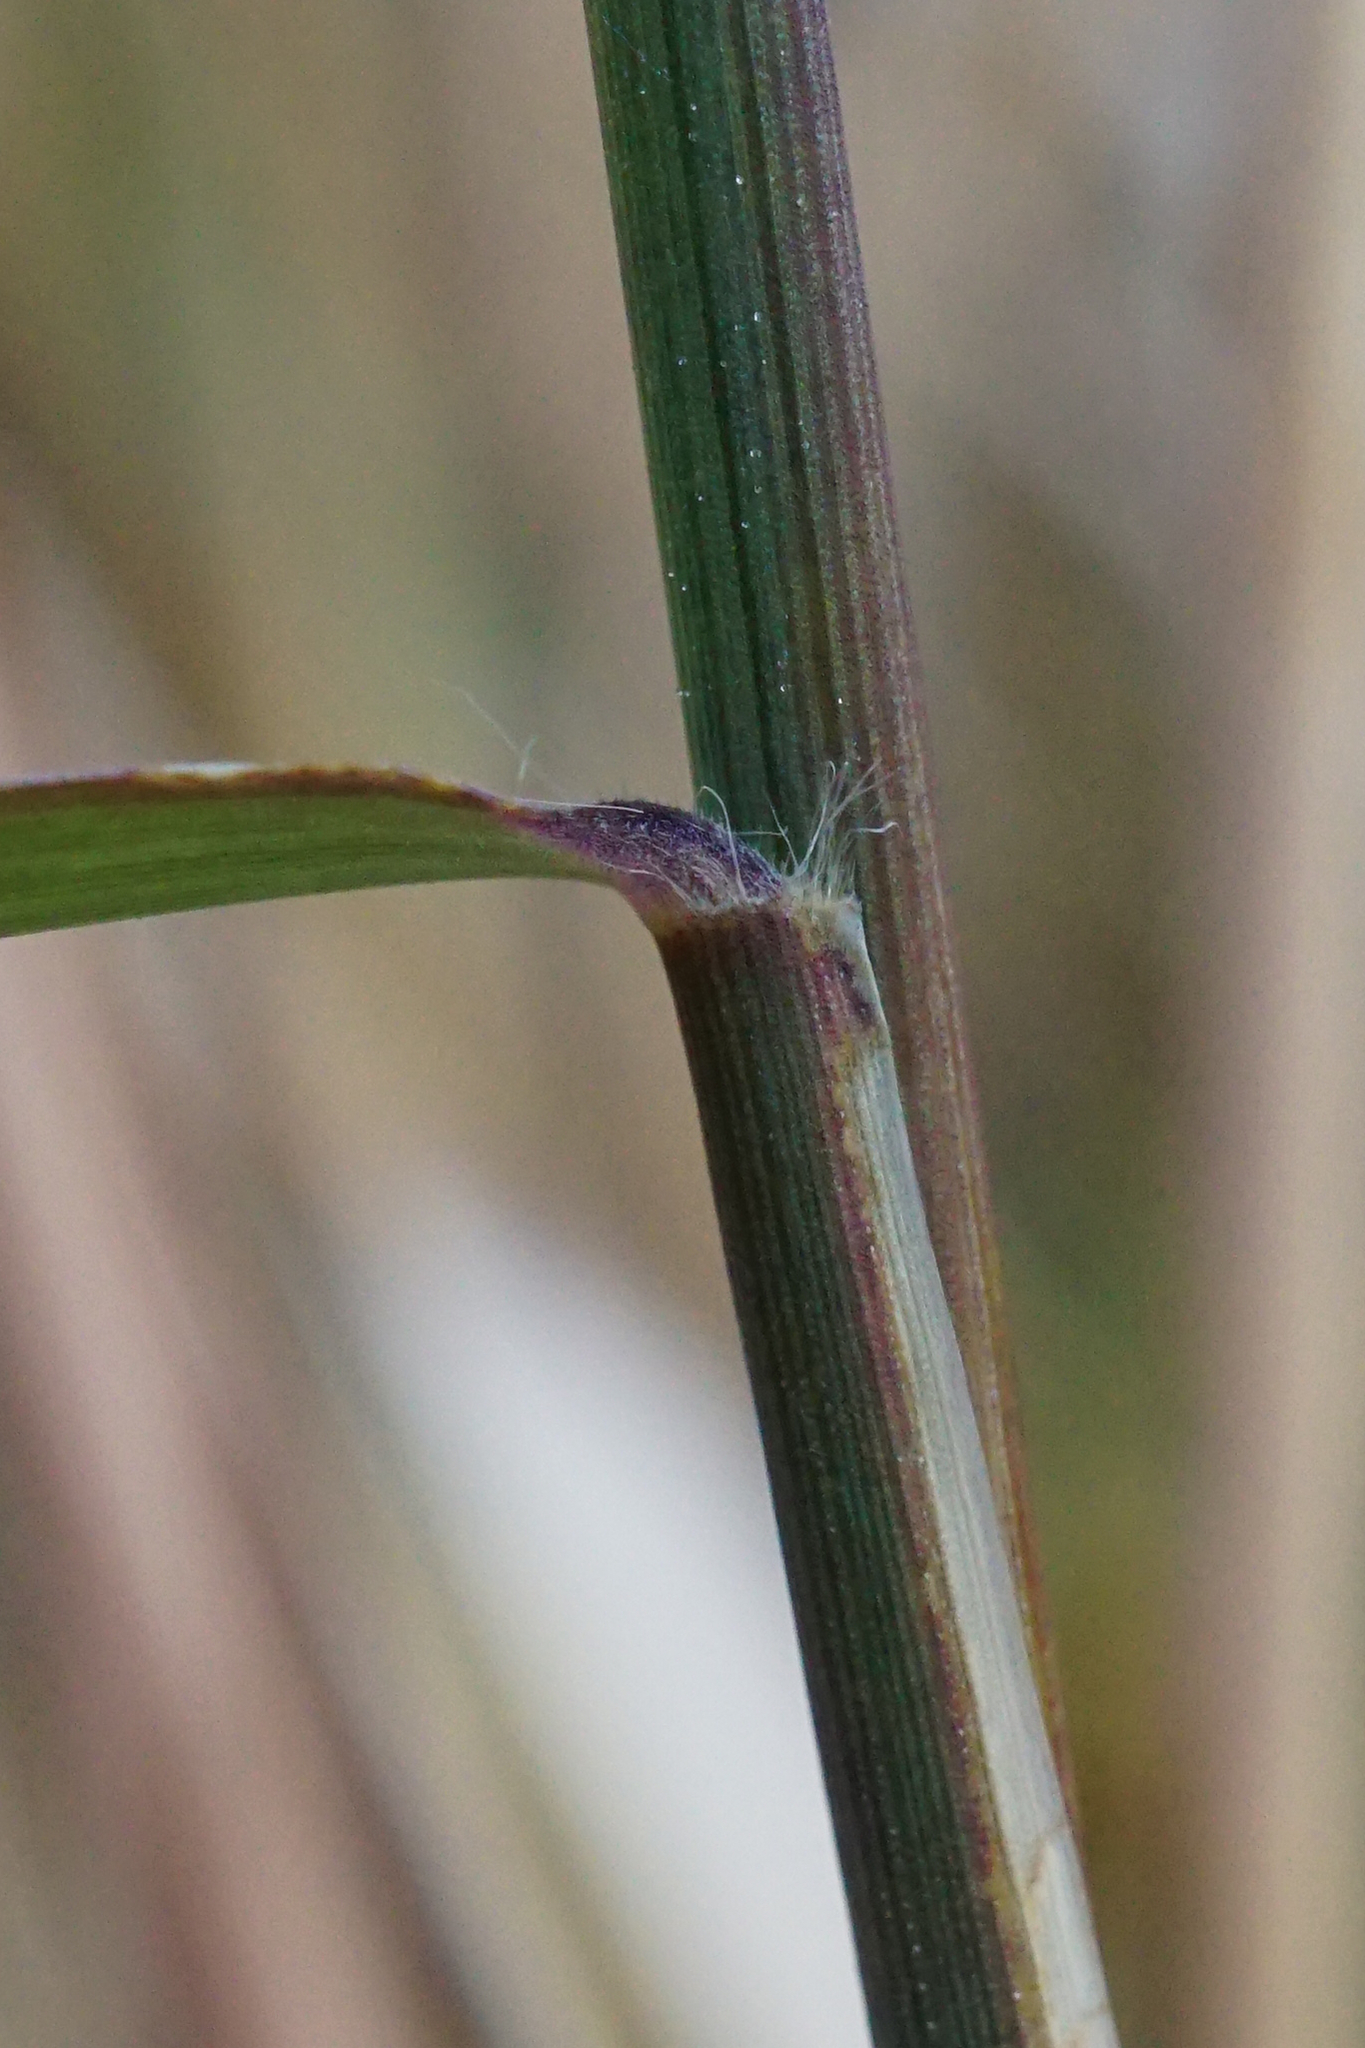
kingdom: Plantae
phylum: Tracheophyta
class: Liliopsida
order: Poales
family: Poaceae
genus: Cleistogenes
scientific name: Cleistogenes serotina
